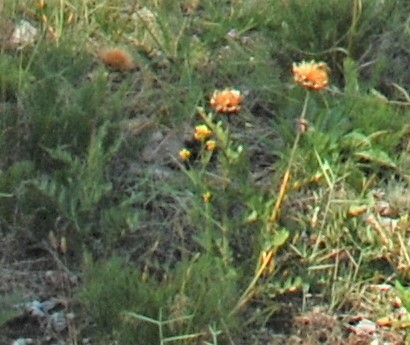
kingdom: Plantae
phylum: Tracheophyta
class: Magnoliopsida
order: Asterales
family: Asteraceae
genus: Leuzea
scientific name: Leuzea uniflora
